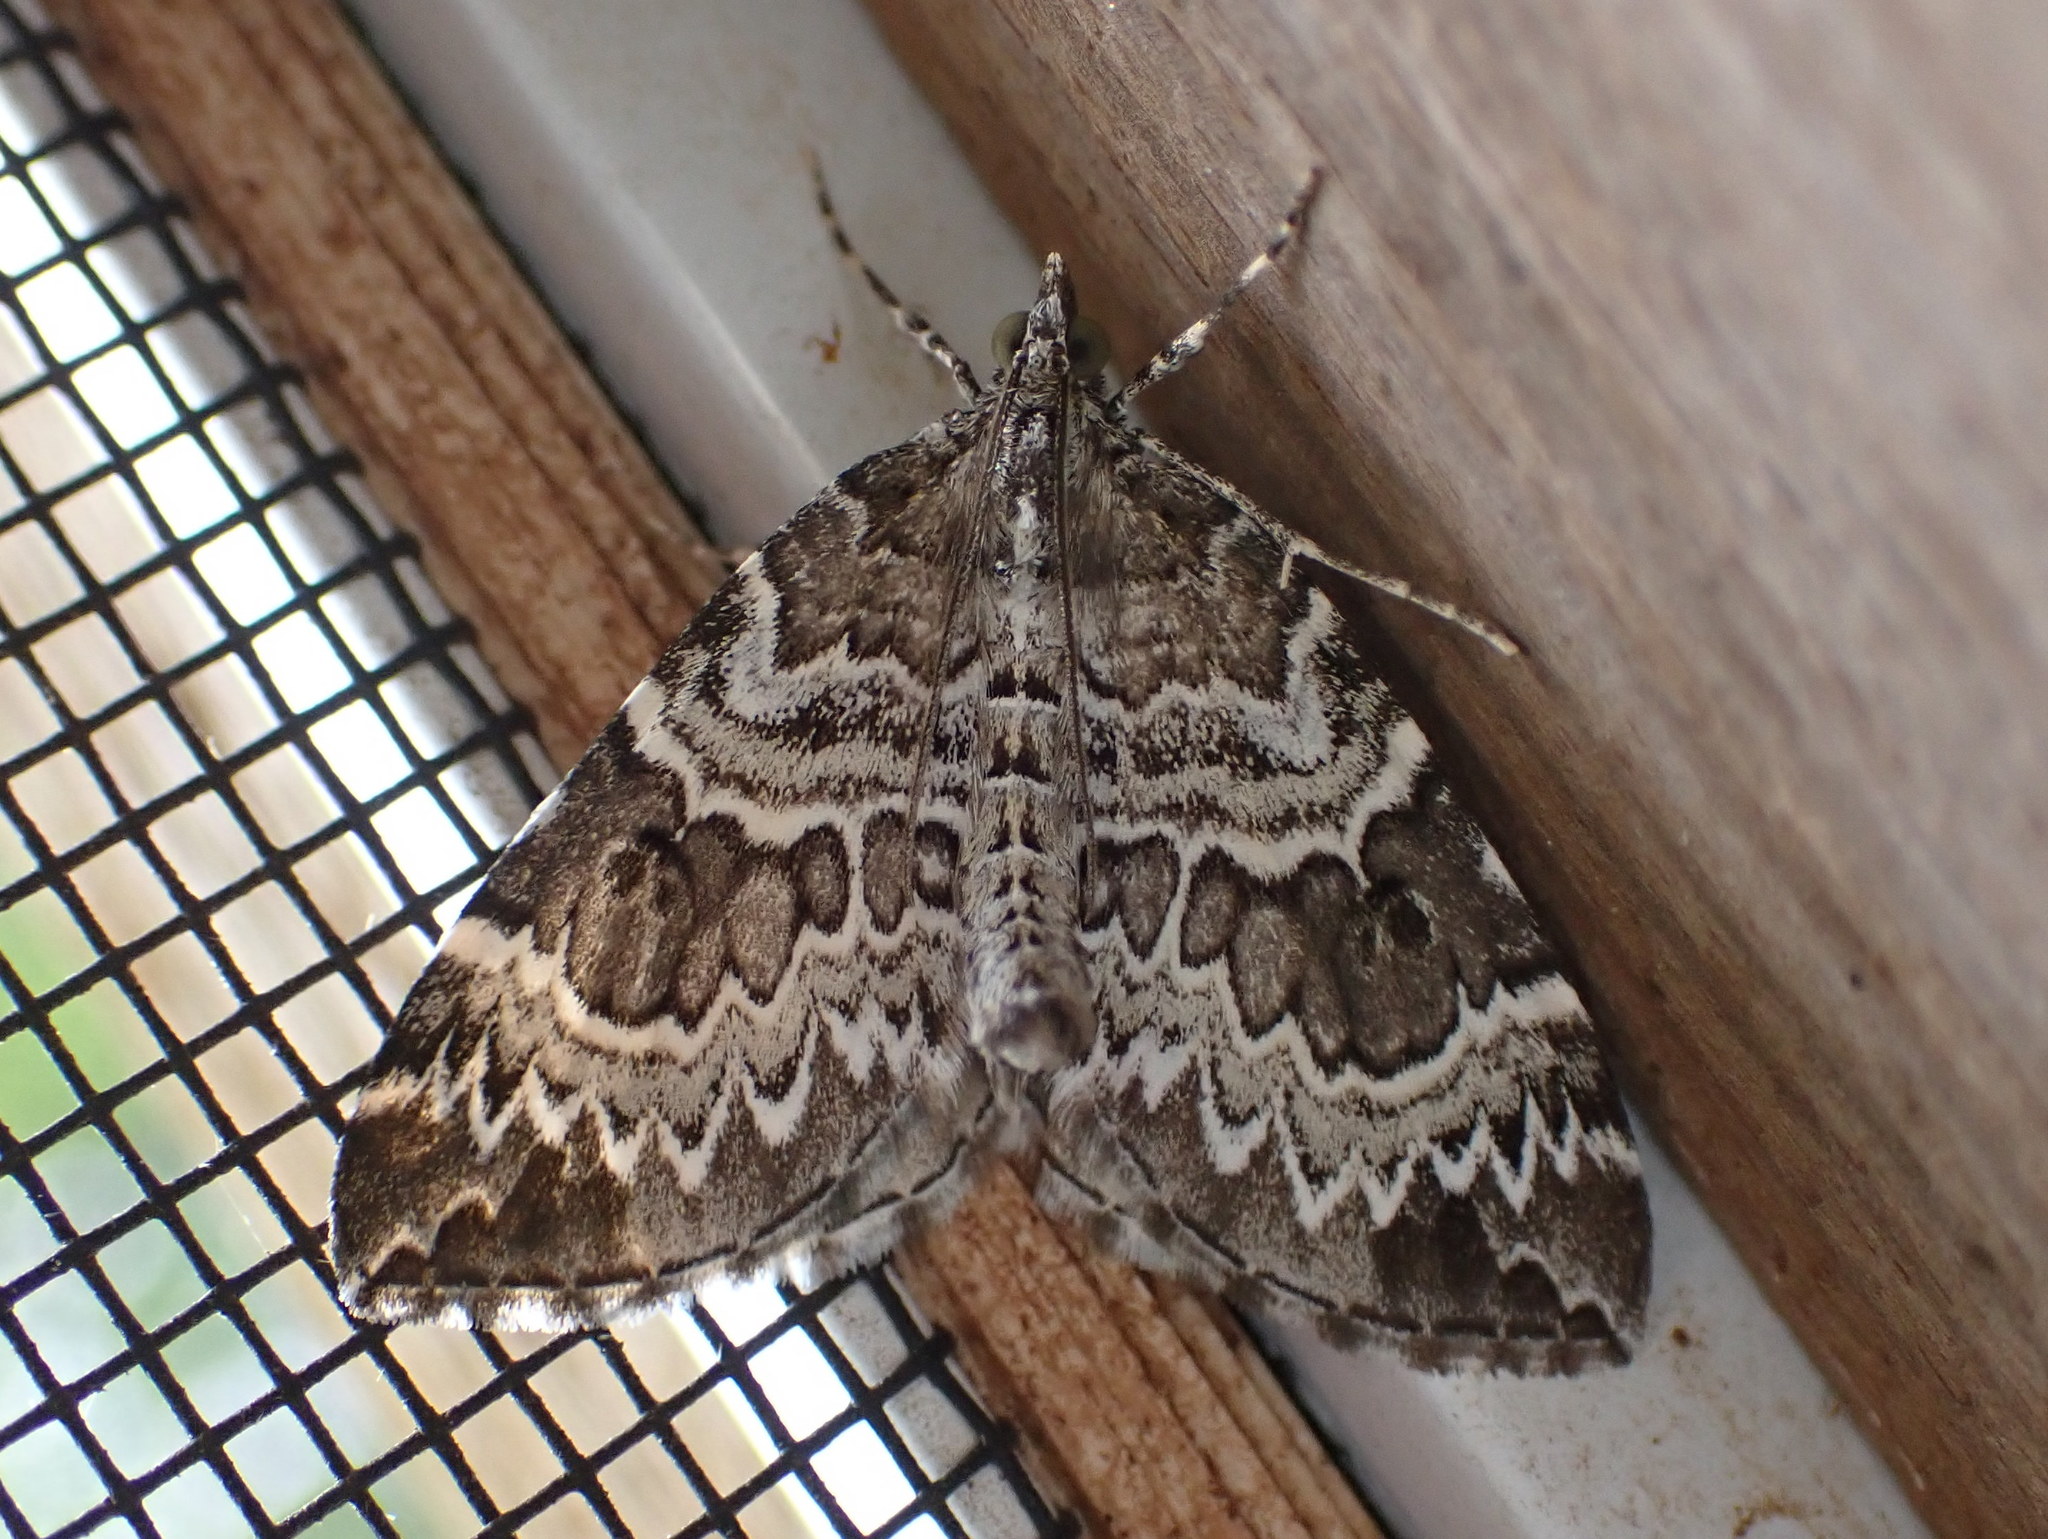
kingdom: Animalia
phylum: Arthropoda
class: Insecta
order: Lepidoptera
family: Geometridae
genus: Eulithis
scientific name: Eulithis explanata
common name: White eulithis
